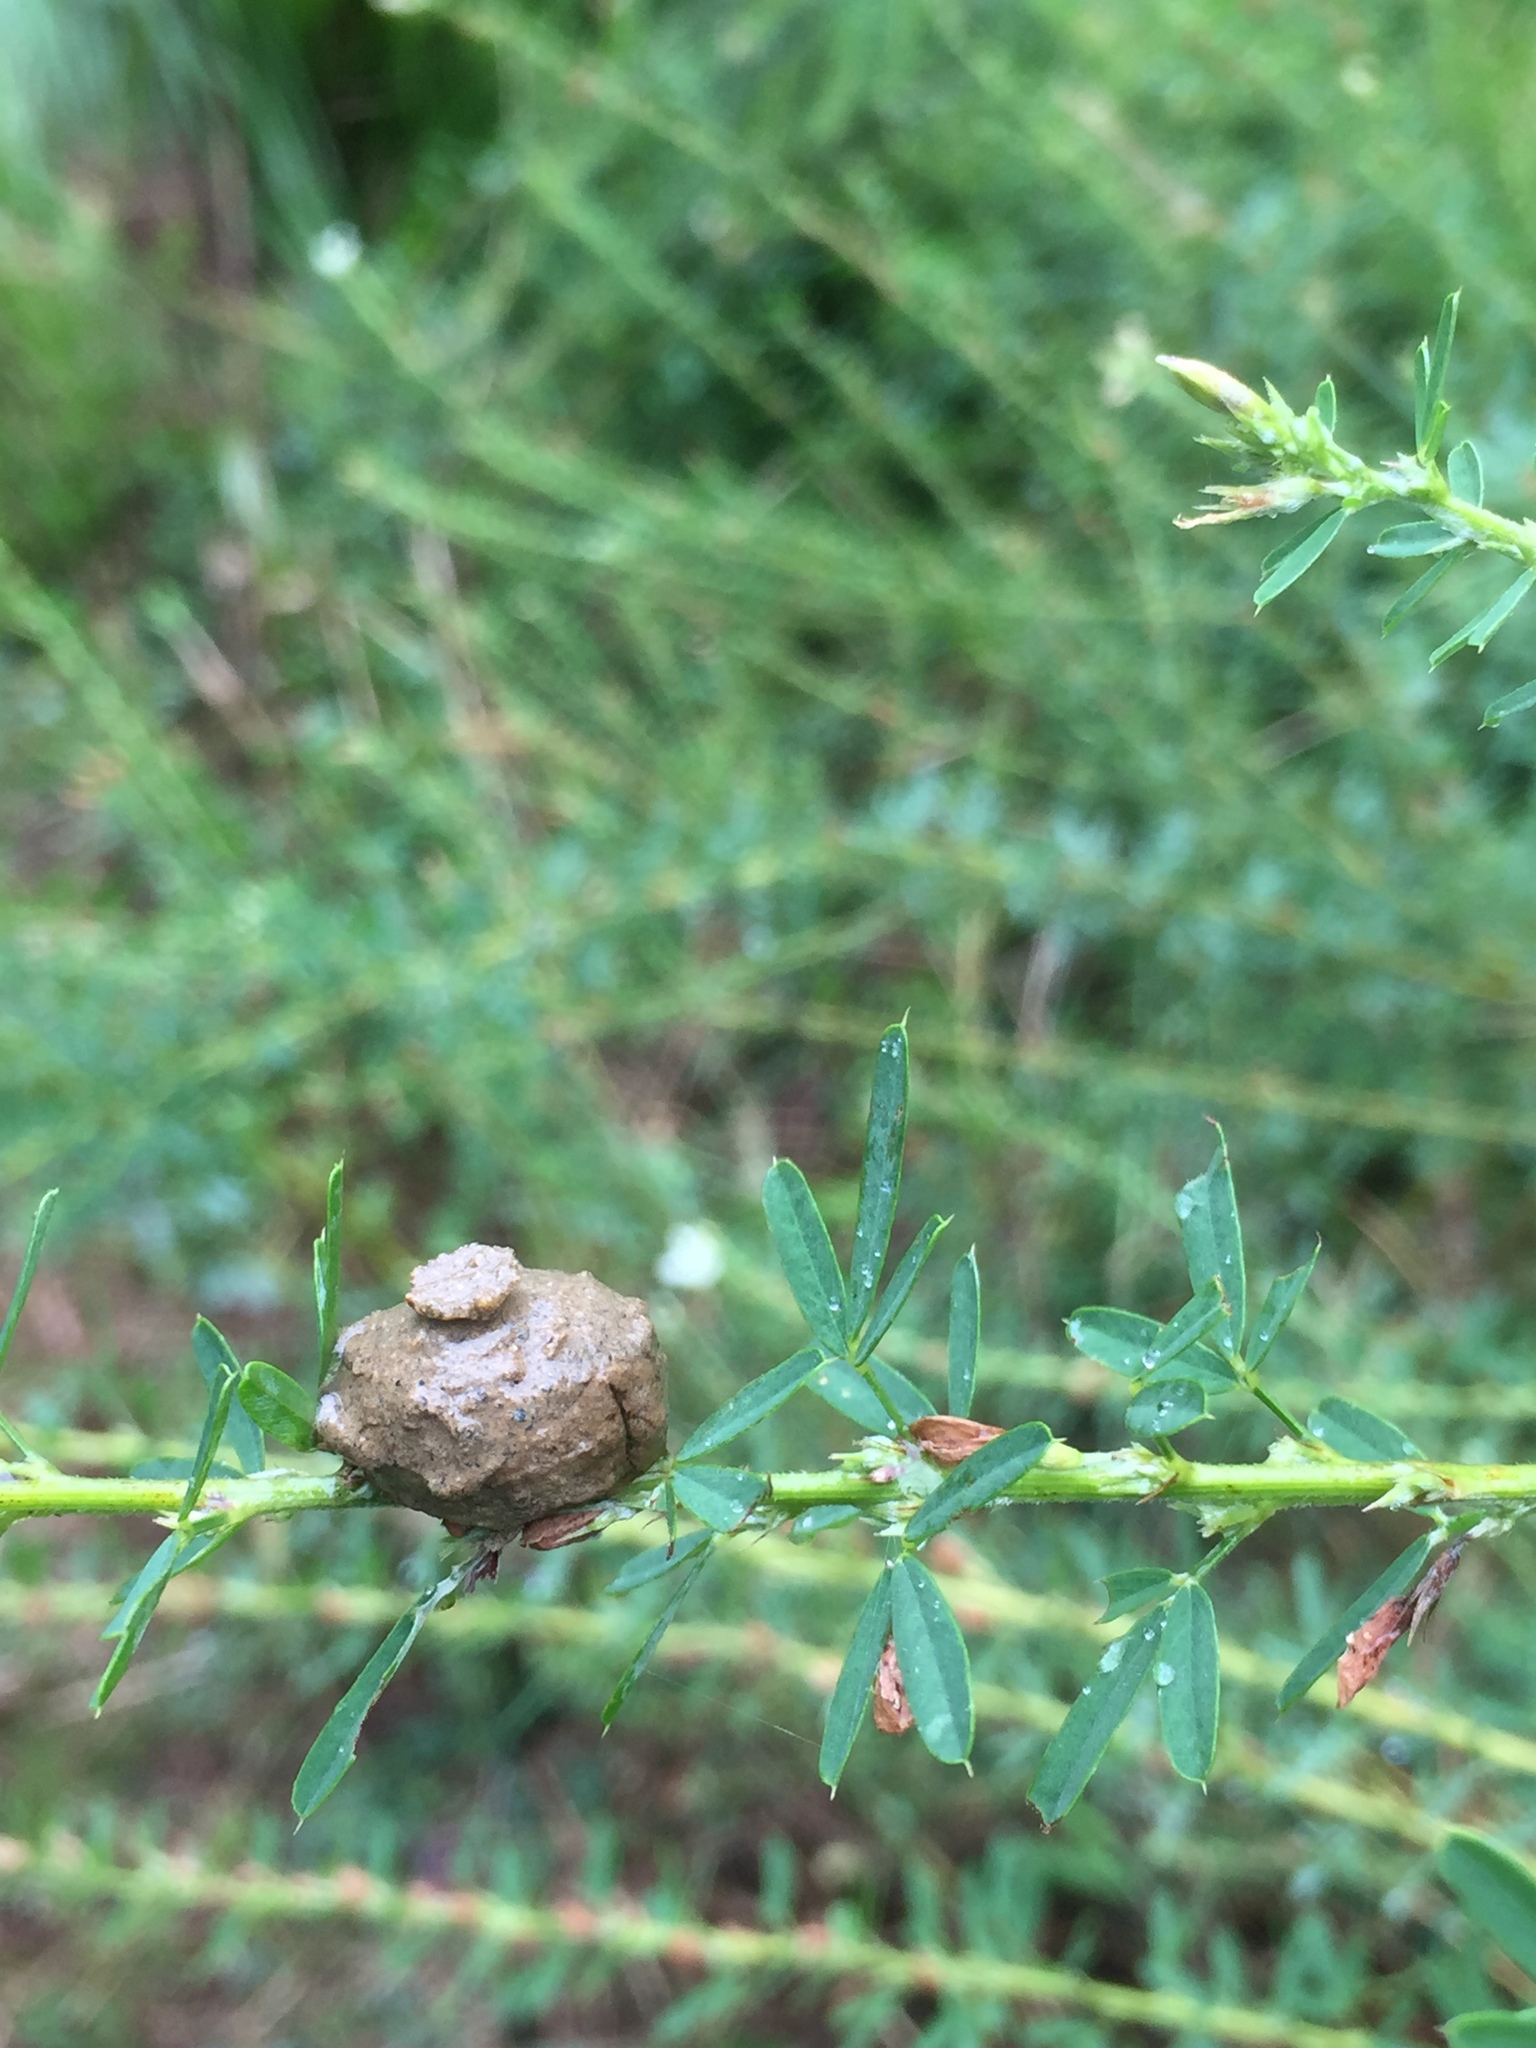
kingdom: Animalia
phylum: Arthropoda
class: Insecta
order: Hymenoptera
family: Vespidae
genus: Eumenes
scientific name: Eumenes
